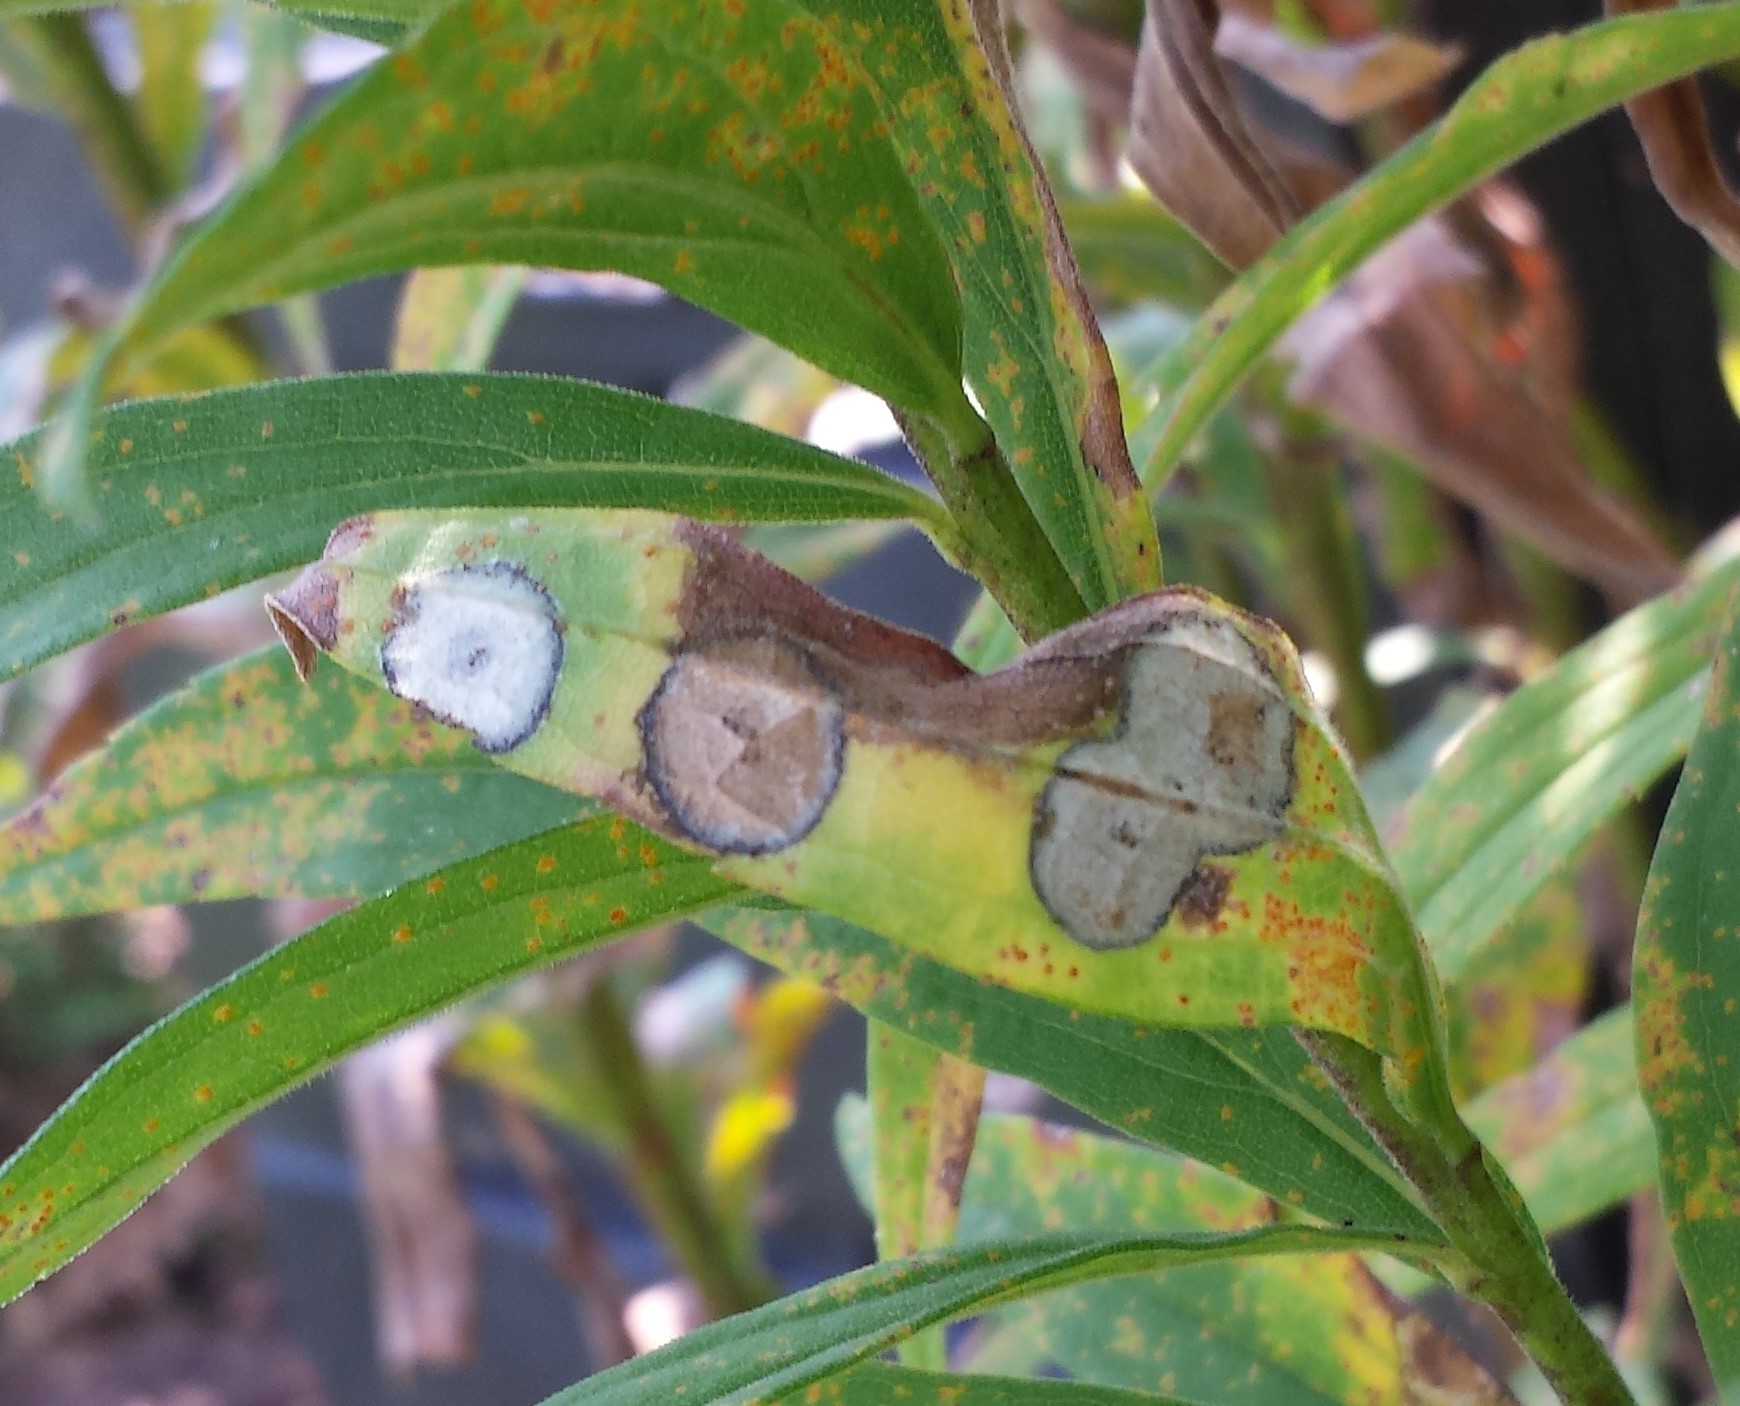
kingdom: Animalia
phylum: Arthropoda
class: Insecta
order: Diptera
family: Cecidomyiidae
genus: Asteromyia
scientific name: Asteromyia carbonifera
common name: Carbonifera goldenrod gall midge
